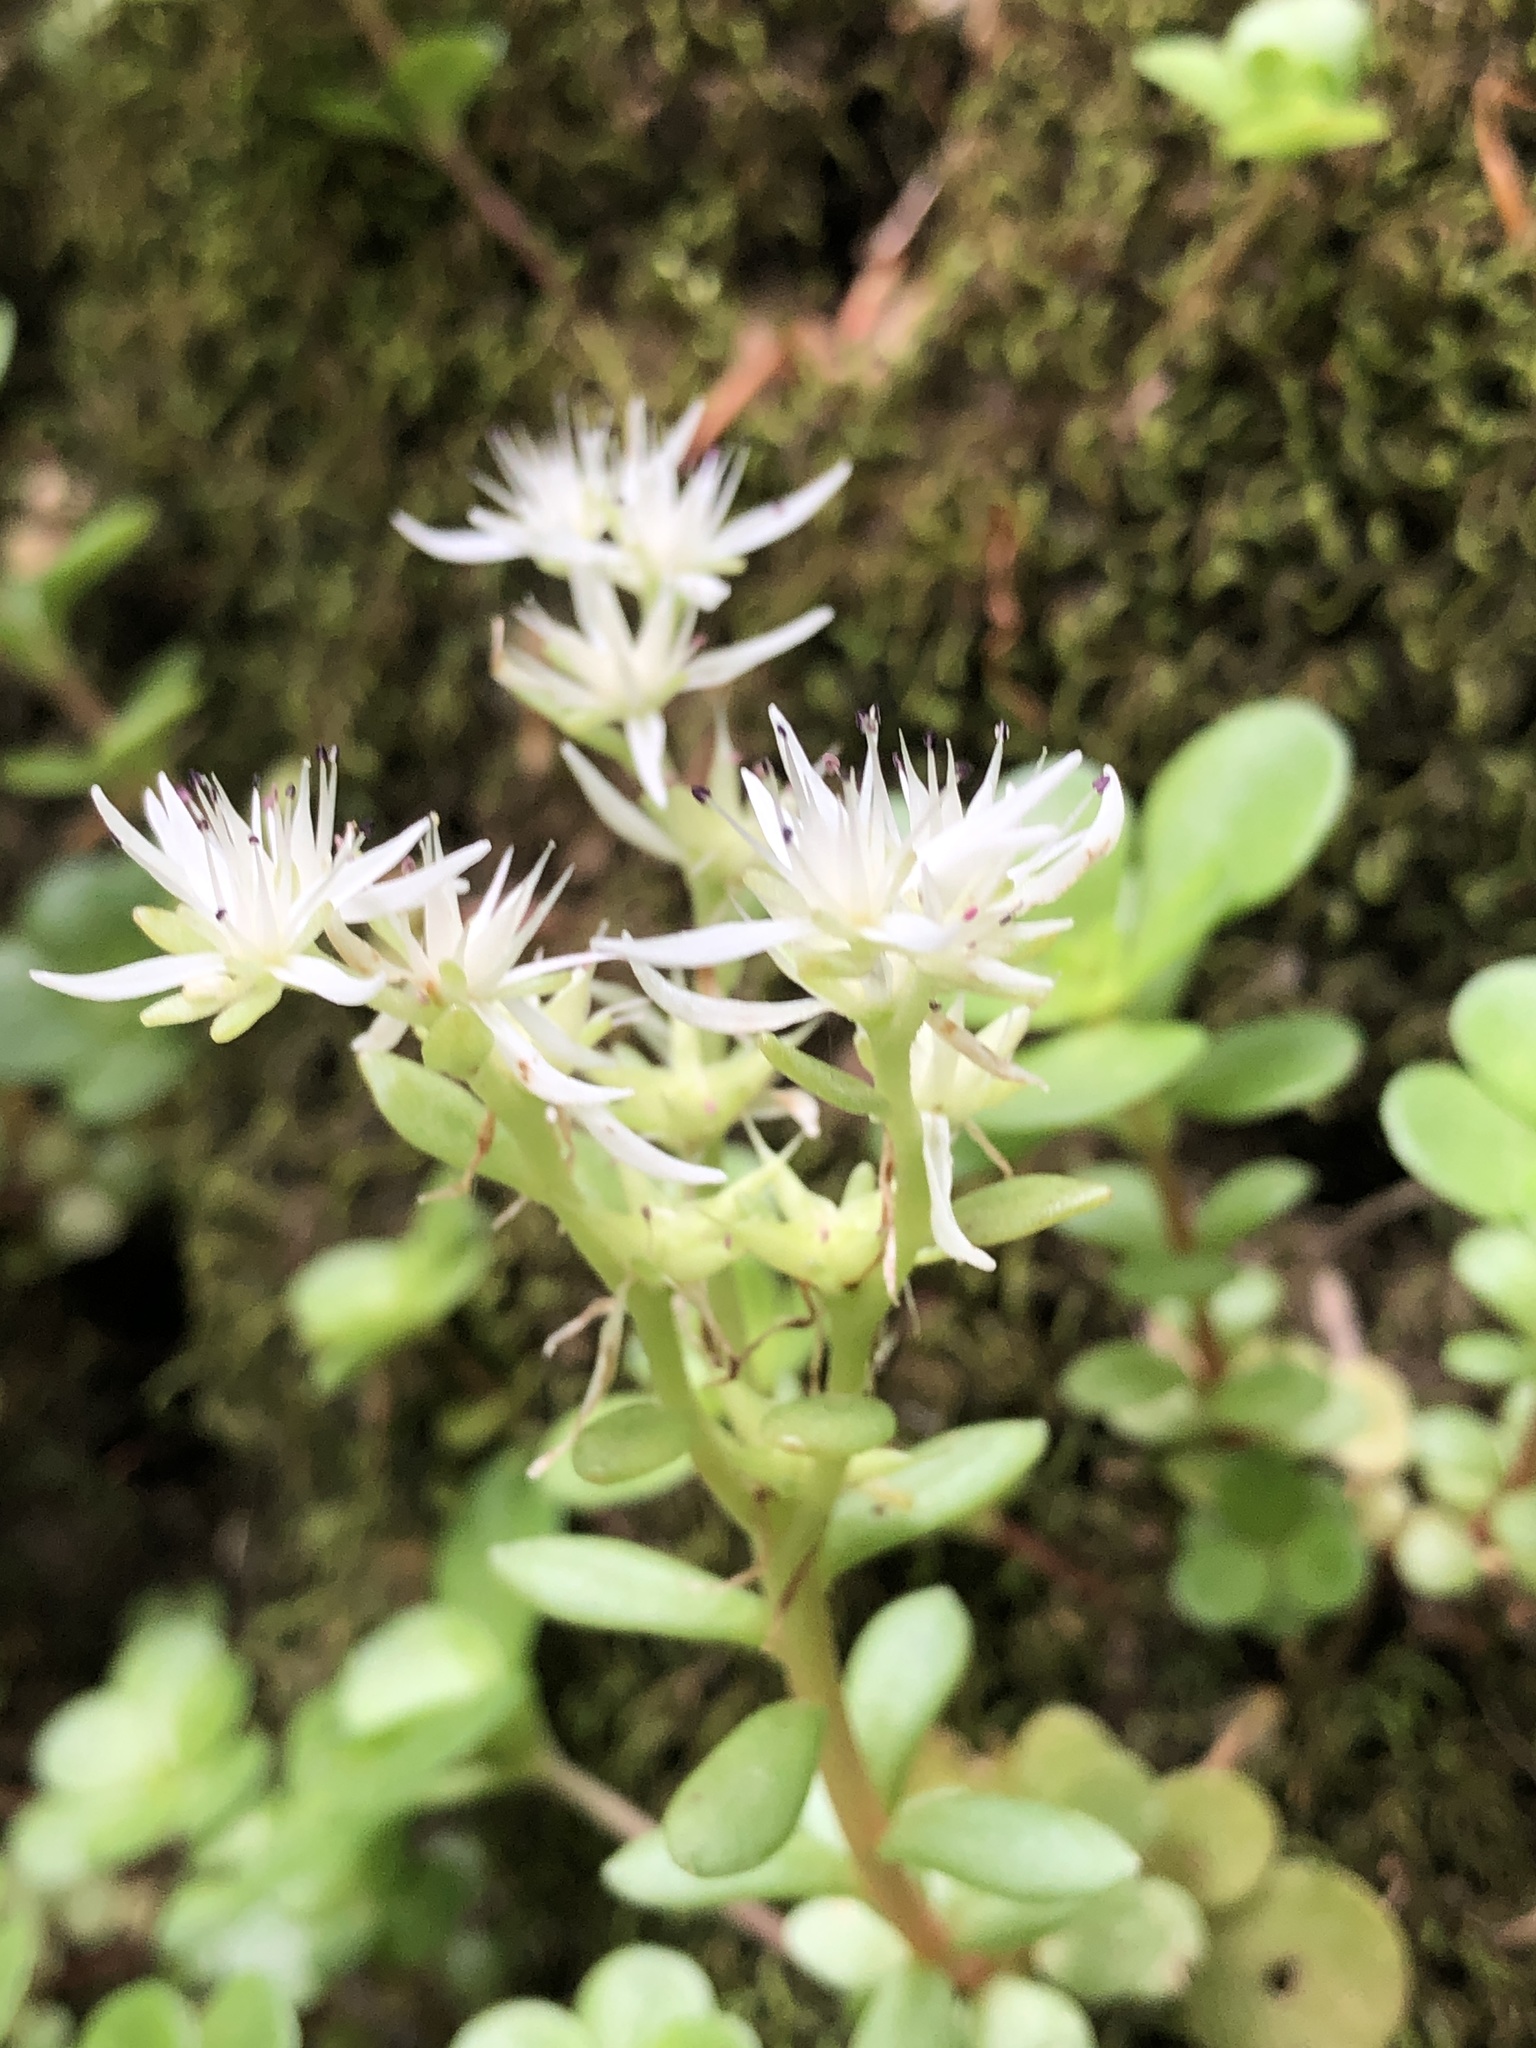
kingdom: Plantae
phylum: Tracheophyta
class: Magnoliopsida
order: Saxifragales
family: Crassulaceae
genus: Sedum
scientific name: Sedum ternatum
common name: Wild stonecrop
